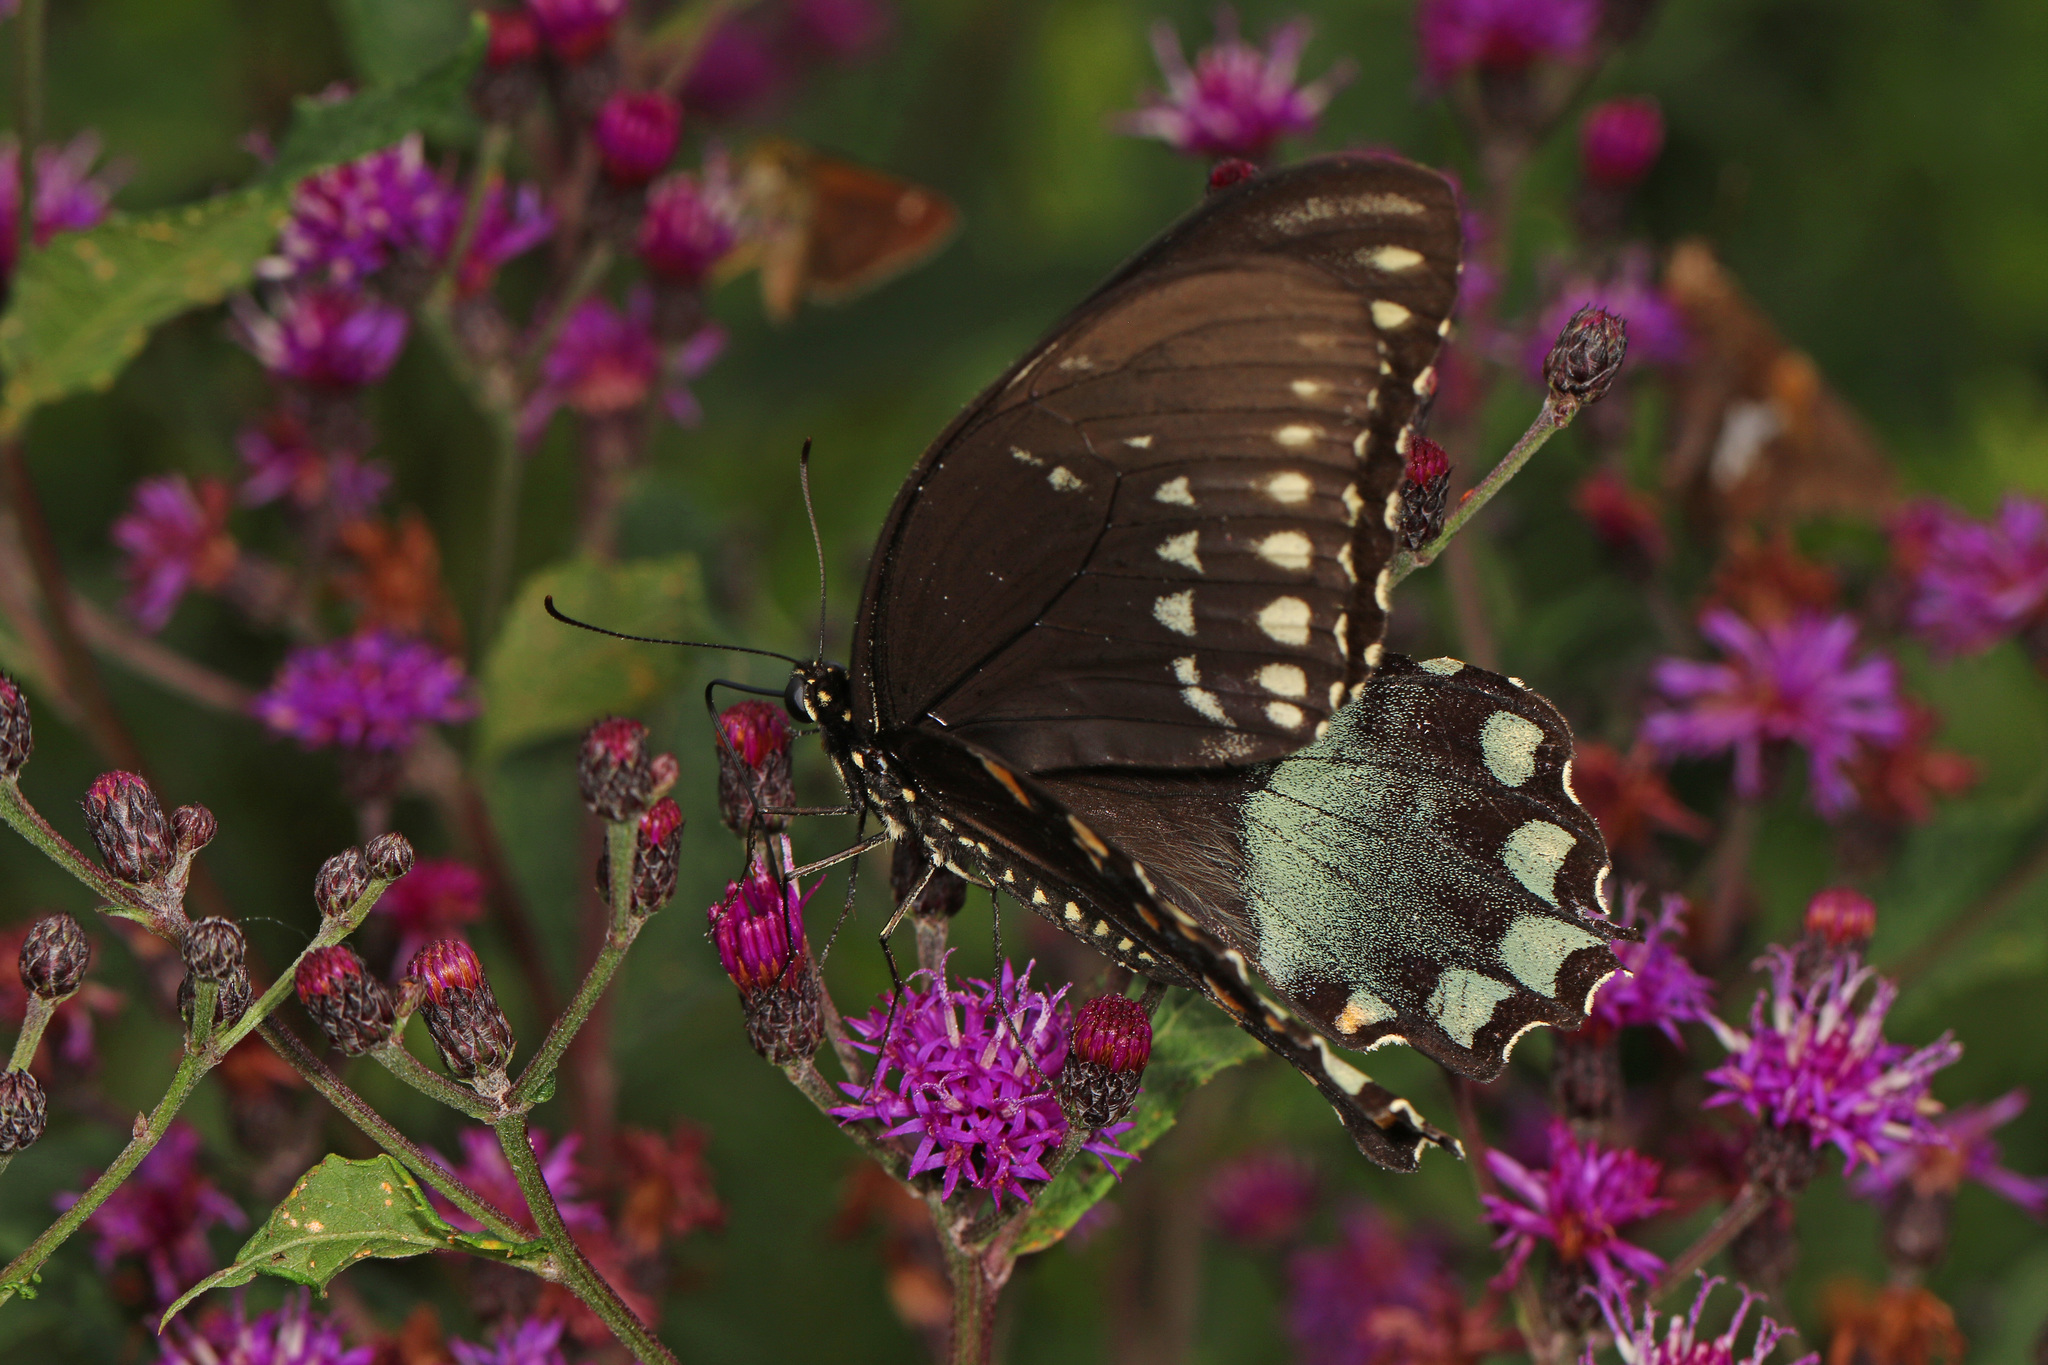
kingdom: Animalia
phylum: Arthropoda
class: Insecta
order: Lepidoptera
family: Papilionidae
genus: Papilio
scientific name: Papilio troilus
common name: Spicebush swallowtail
